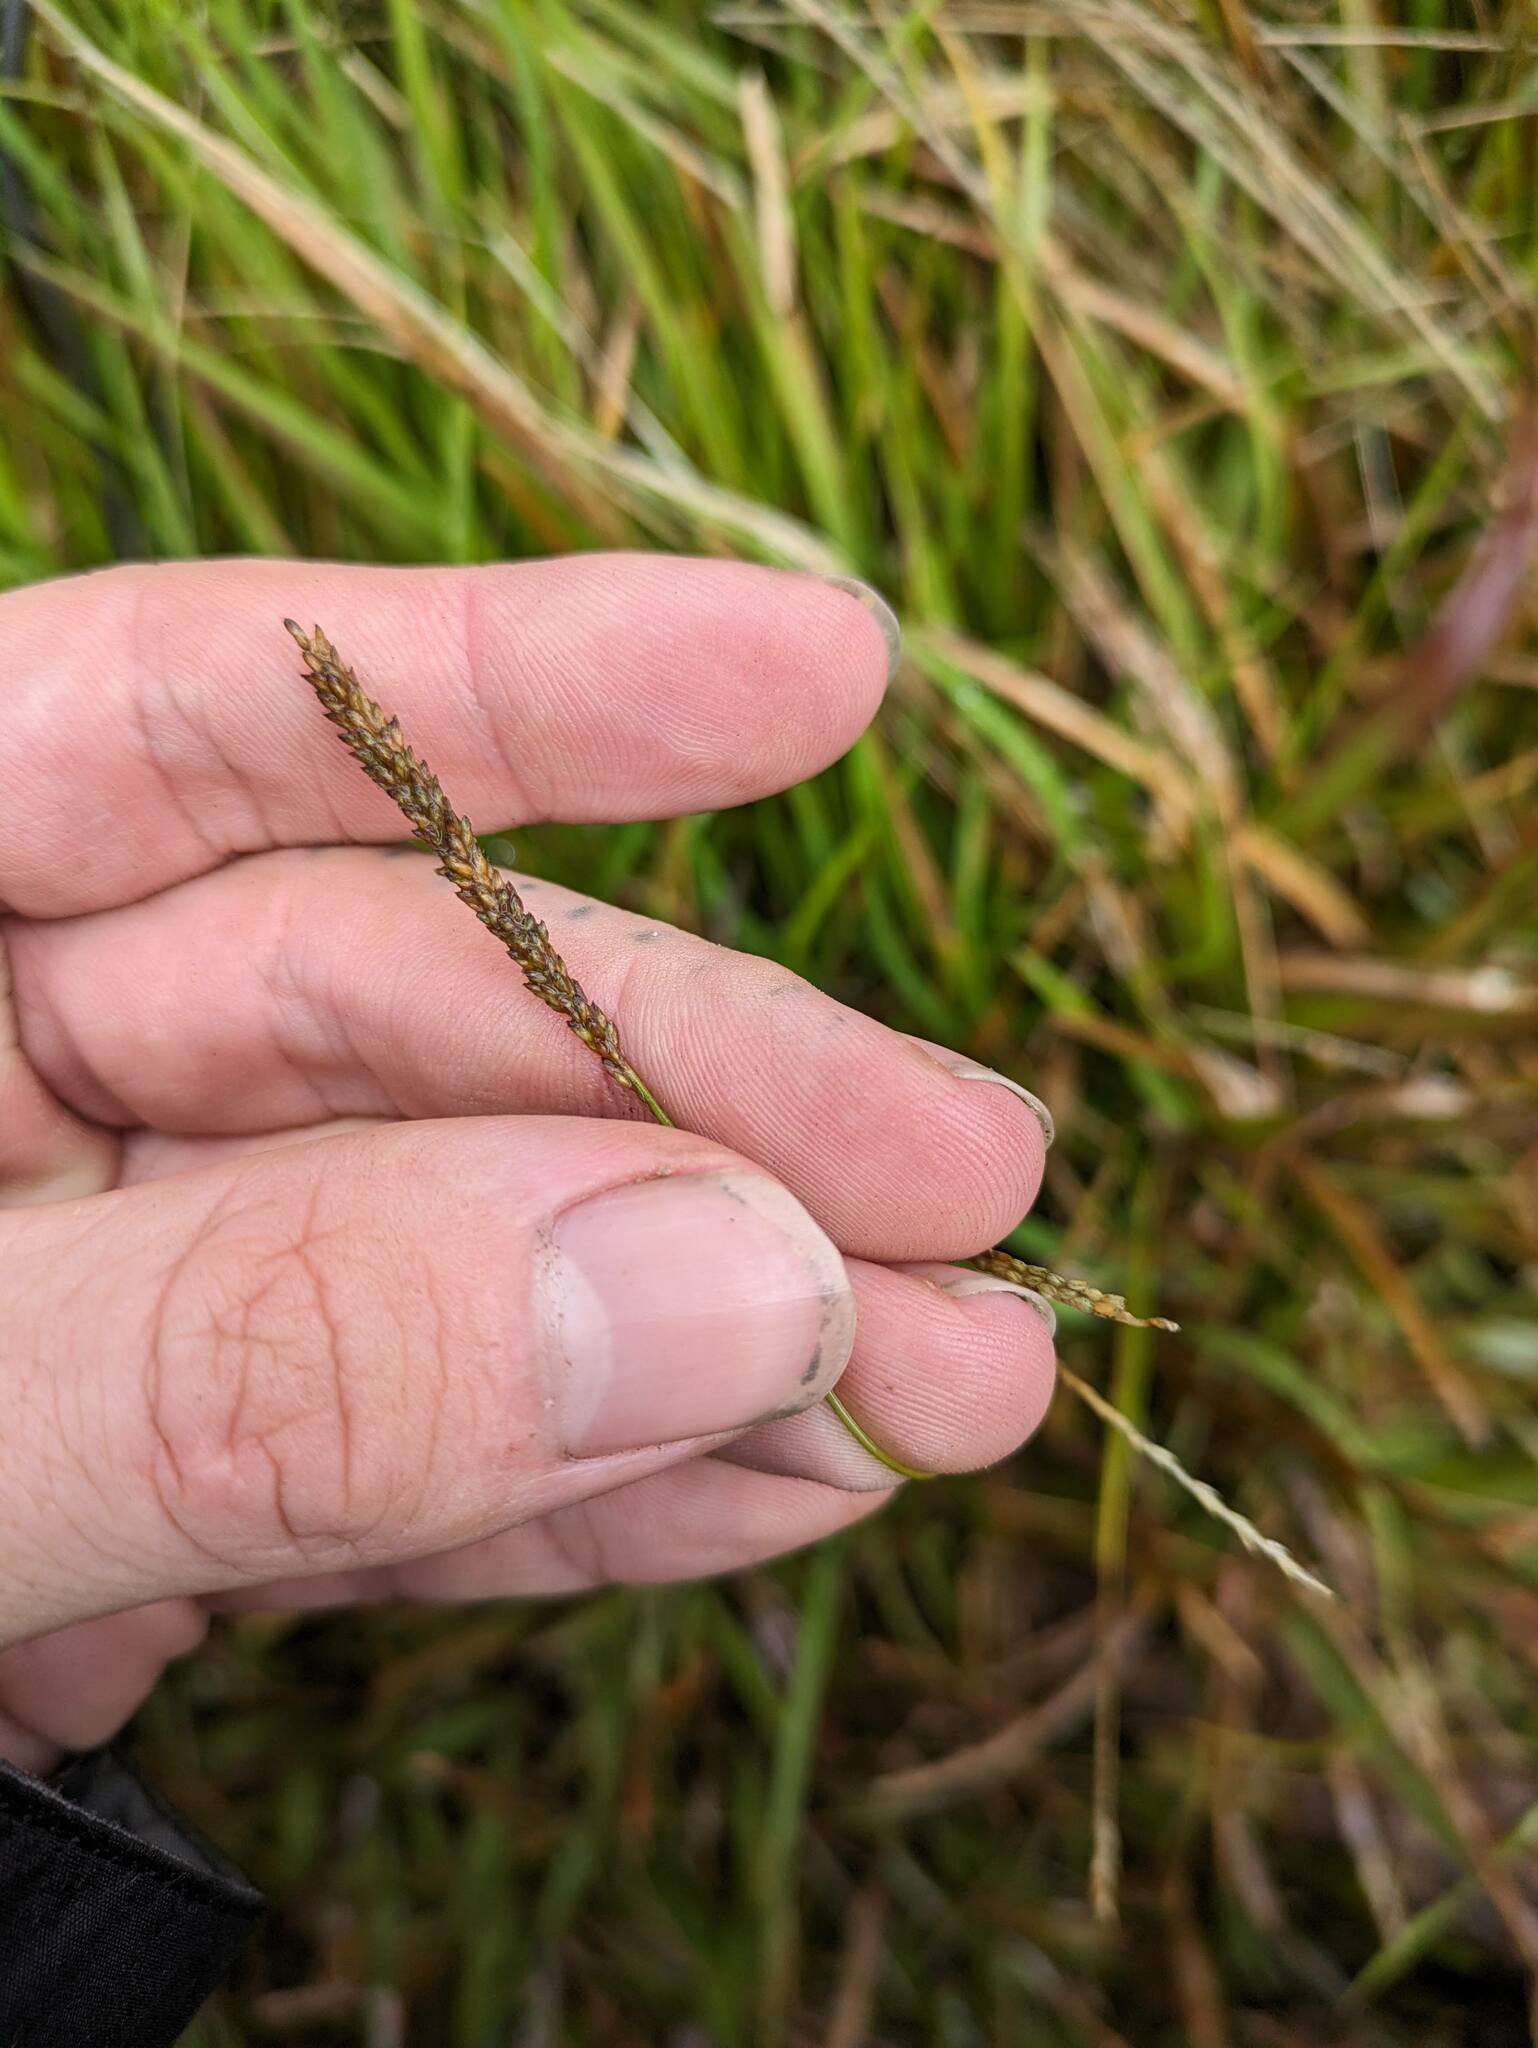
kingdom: Plantae
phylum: Tracheophyta
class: Liliopsida
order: Poales
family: Poaceae
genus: Sacciolepis
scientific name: Sacciolepis indica
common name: Glenwoodgrass
